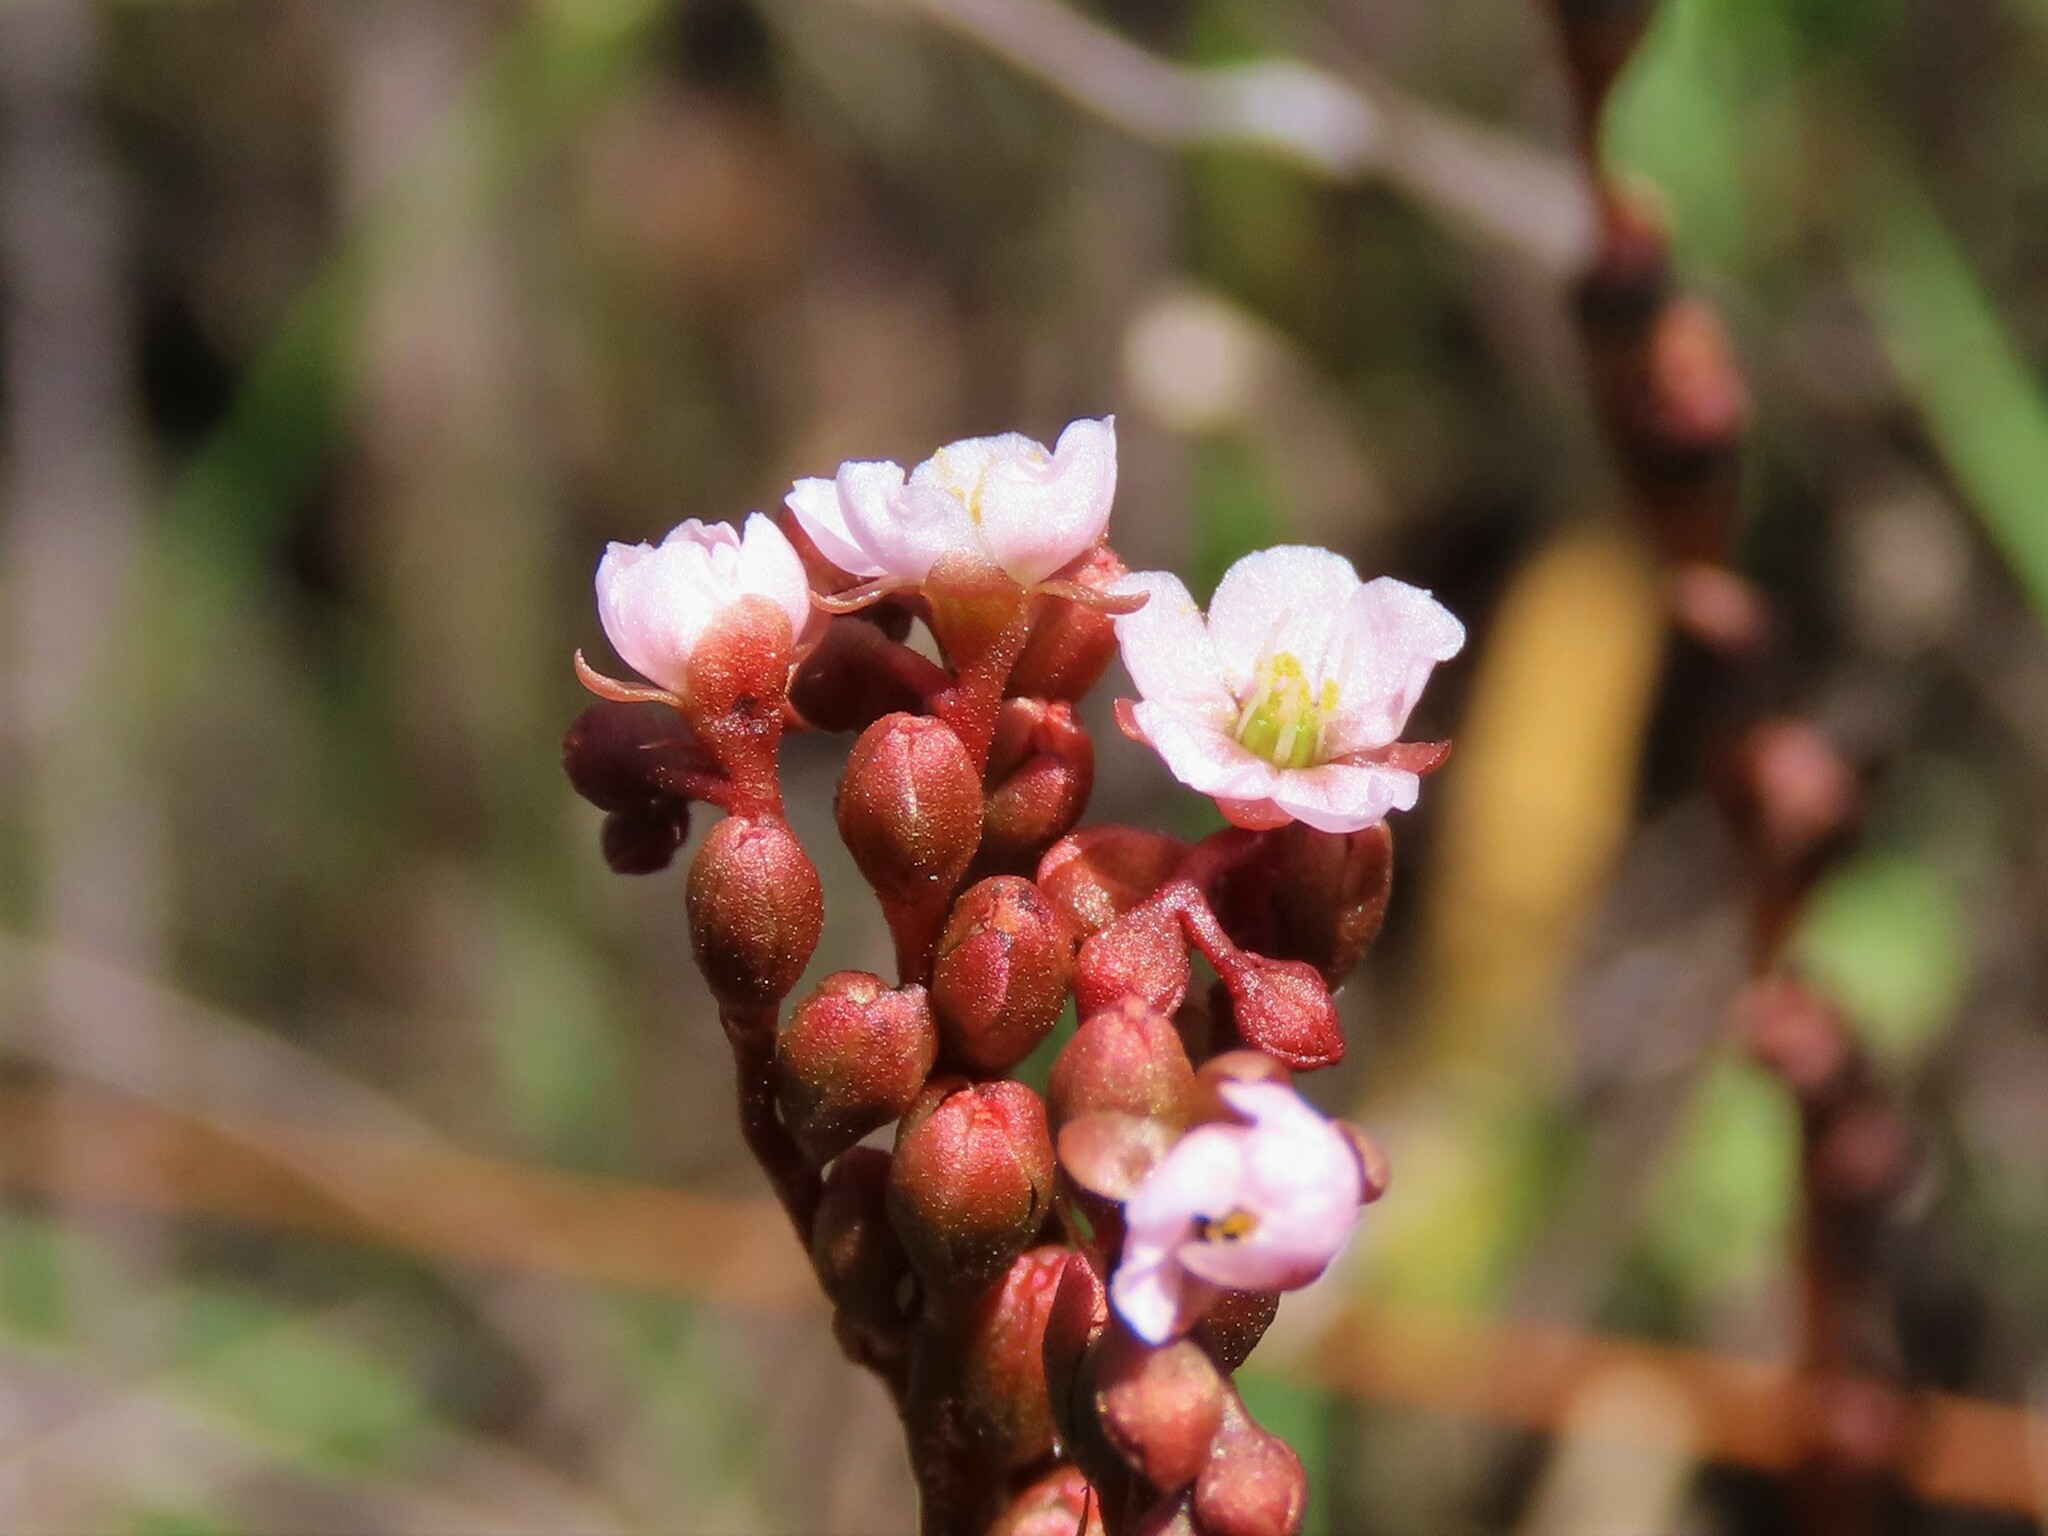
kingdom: Plantae
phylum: Tracheophyta
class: Magnoliopsida
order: Caryophyllales
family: Droseraceae
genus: Drosera
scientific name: Drosera capillaris
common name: Pink sundew
